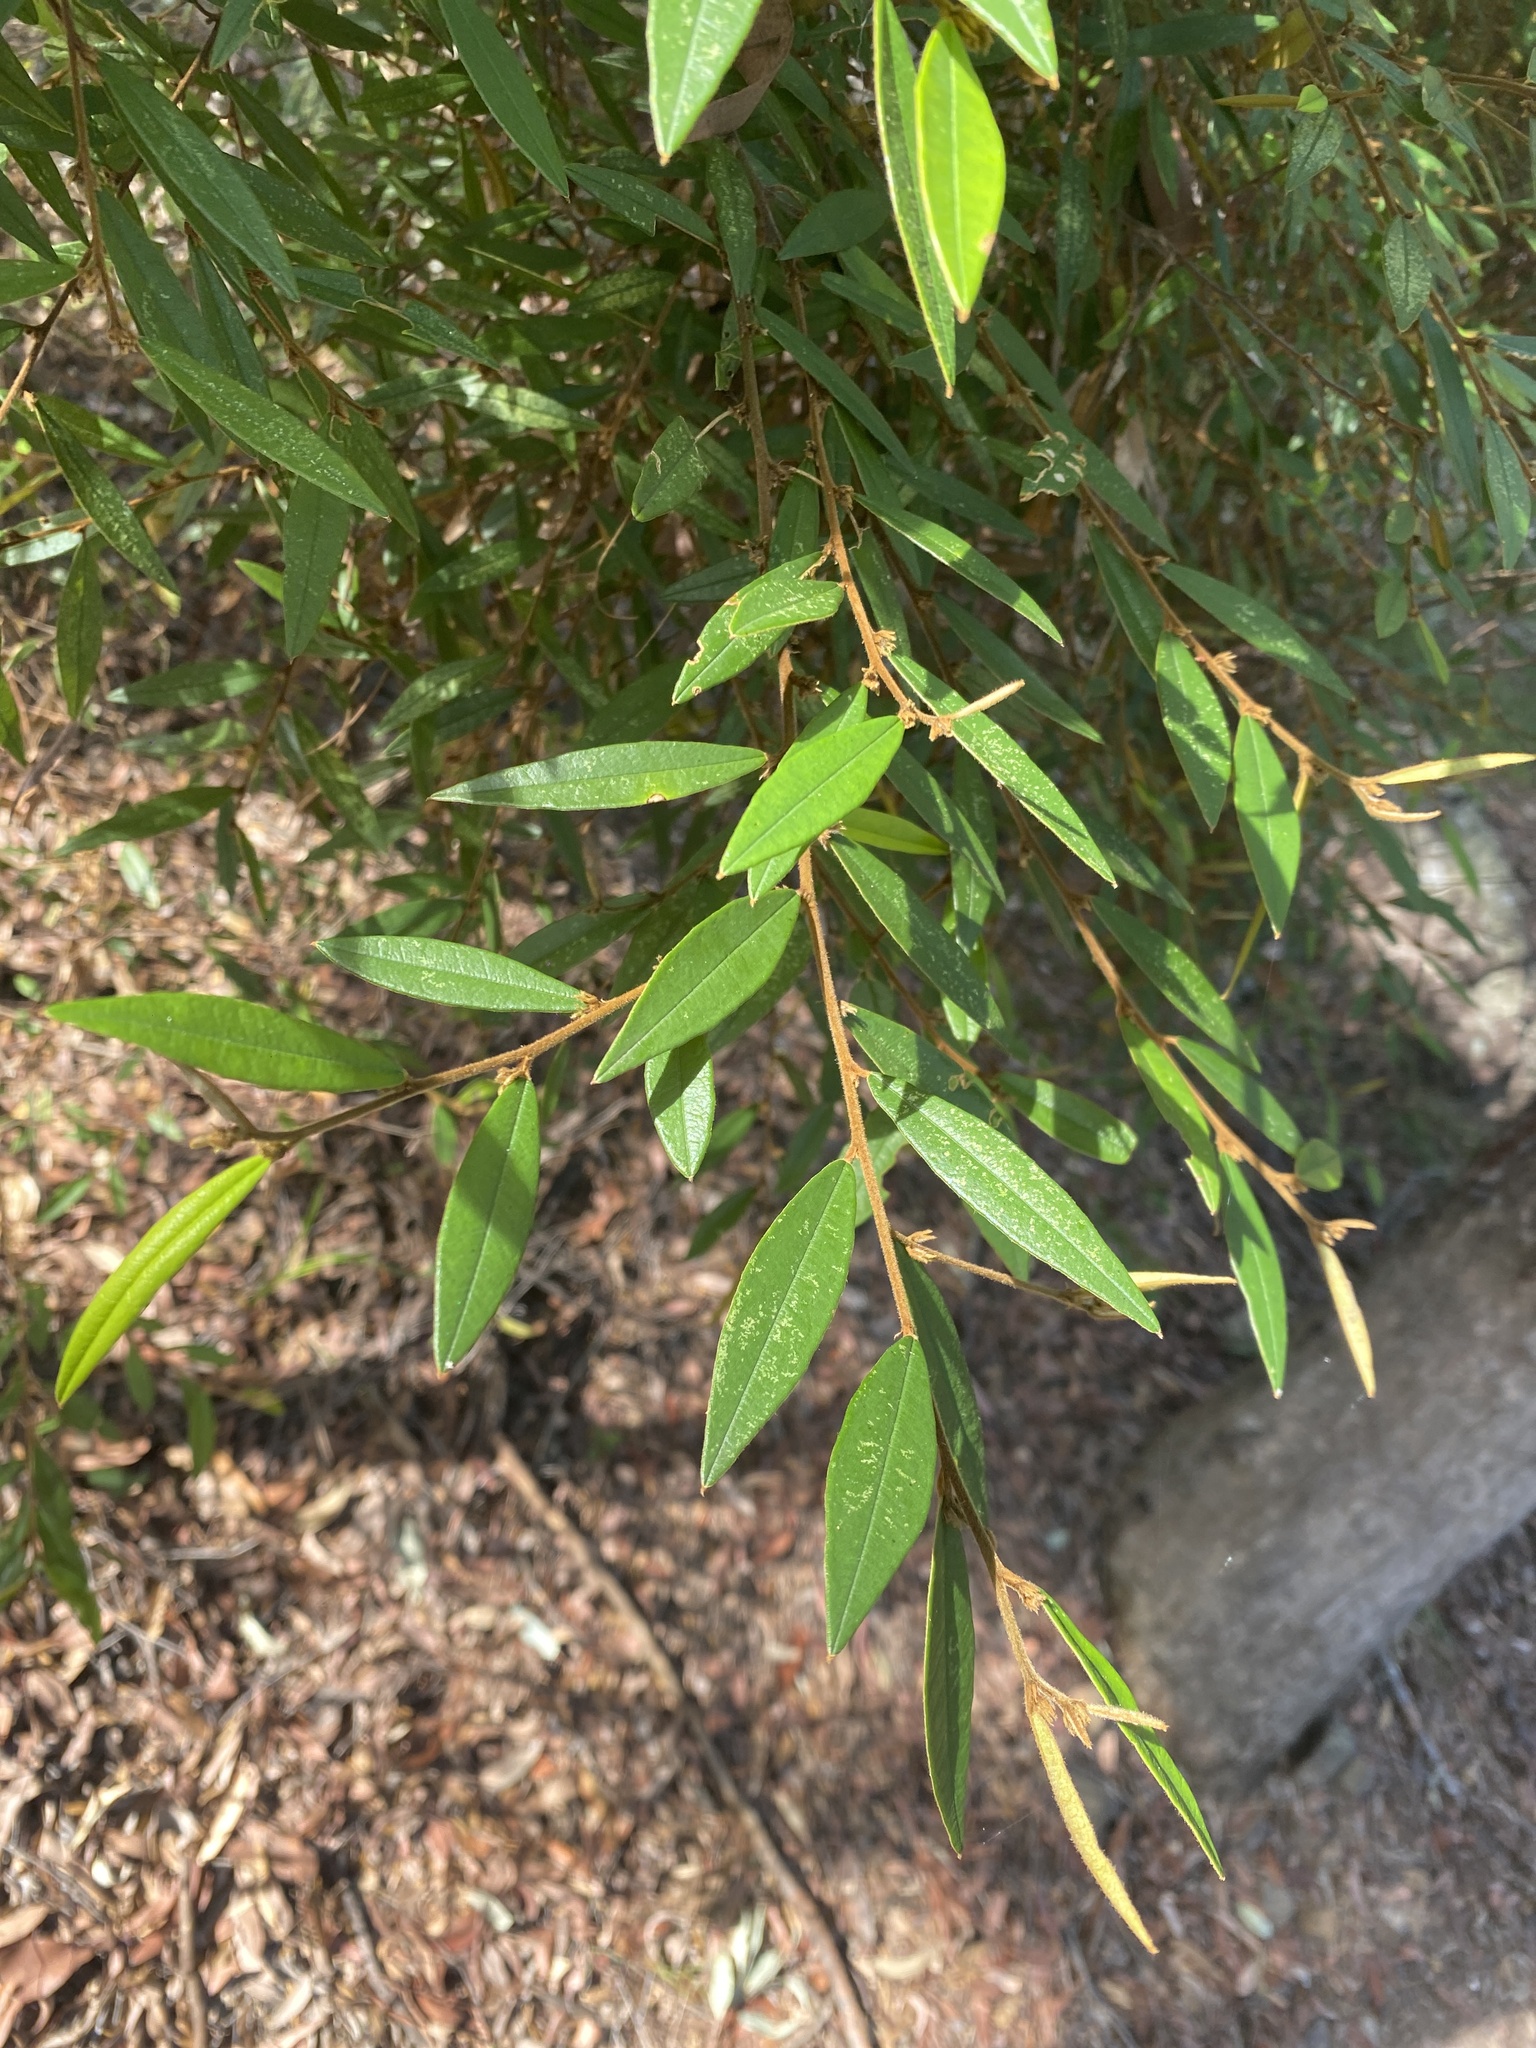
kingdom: Plantae
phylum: Tracheophyta
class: Magnoliopsida
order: Fabales
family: Fabaceae
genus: Hovea
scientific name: Hovea acutifolia
